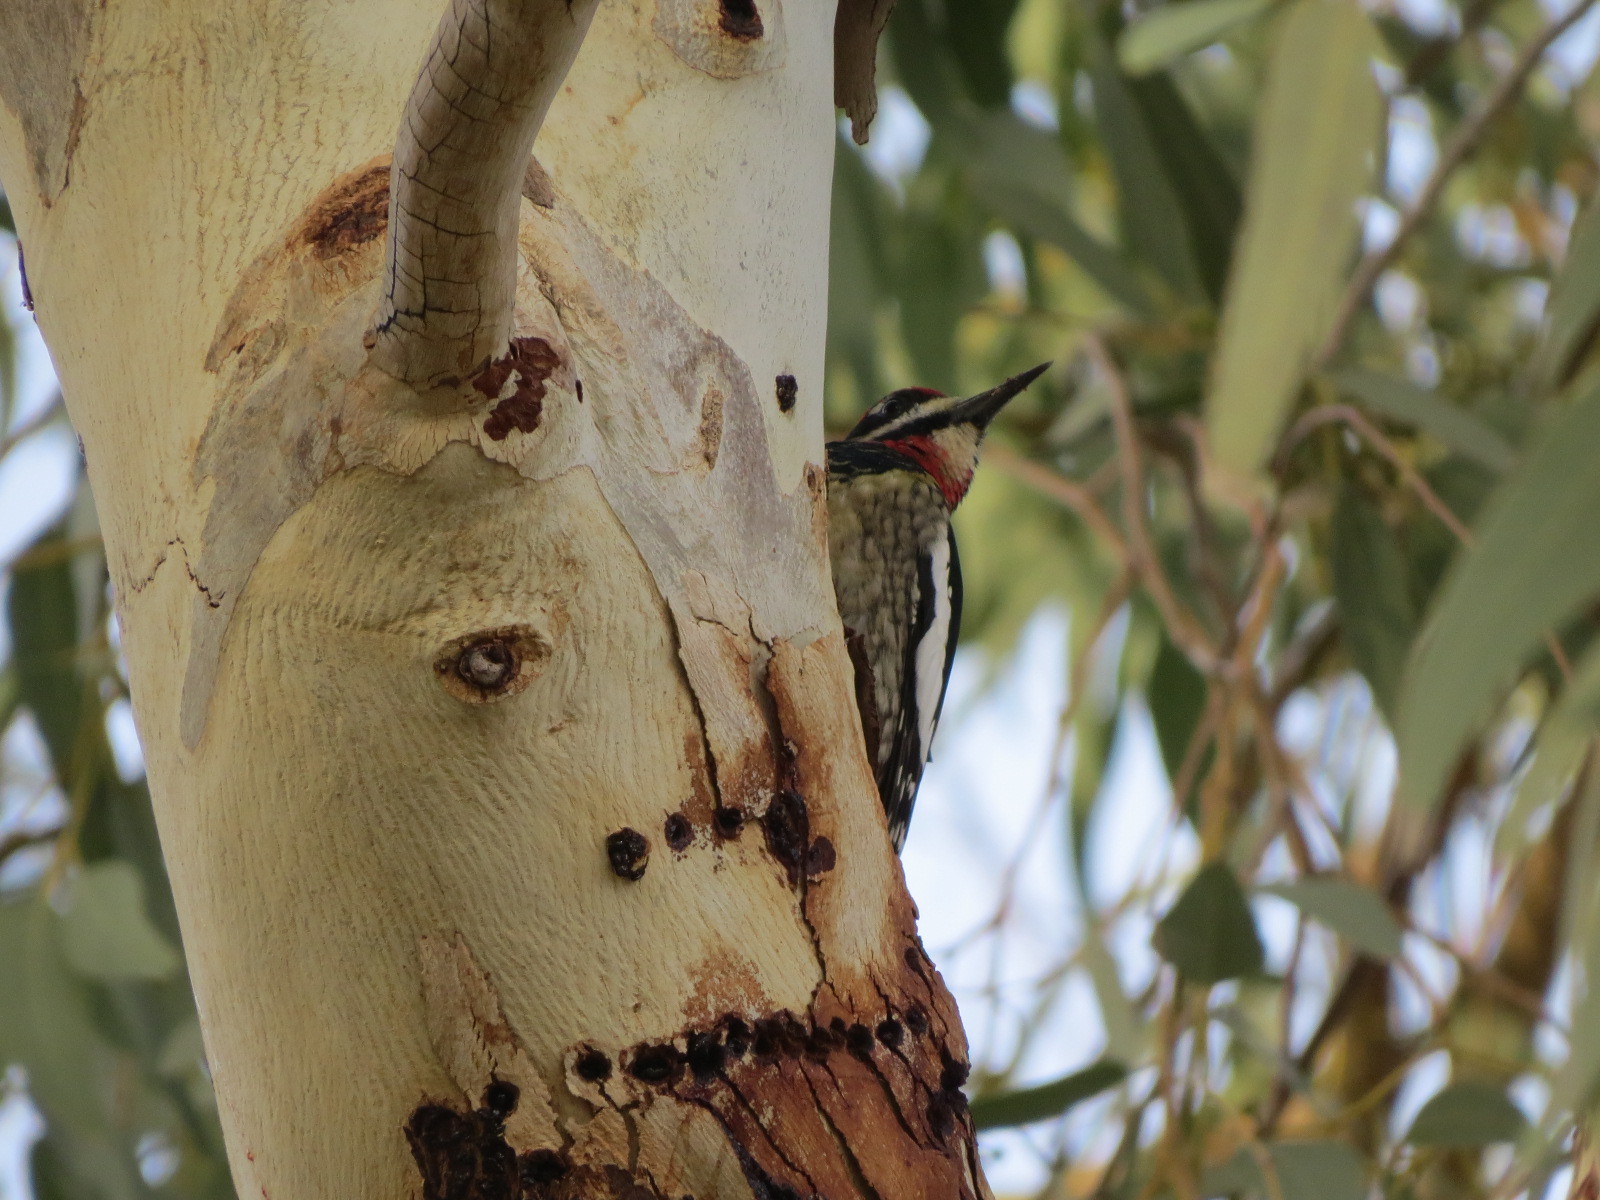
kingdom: Animalia
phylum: Chordata
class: Aves
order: Piciformes
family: Picidae
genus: Sphyrapicus
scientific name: Sphyrapicus nuchalis
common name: Red-naped sapsucker
